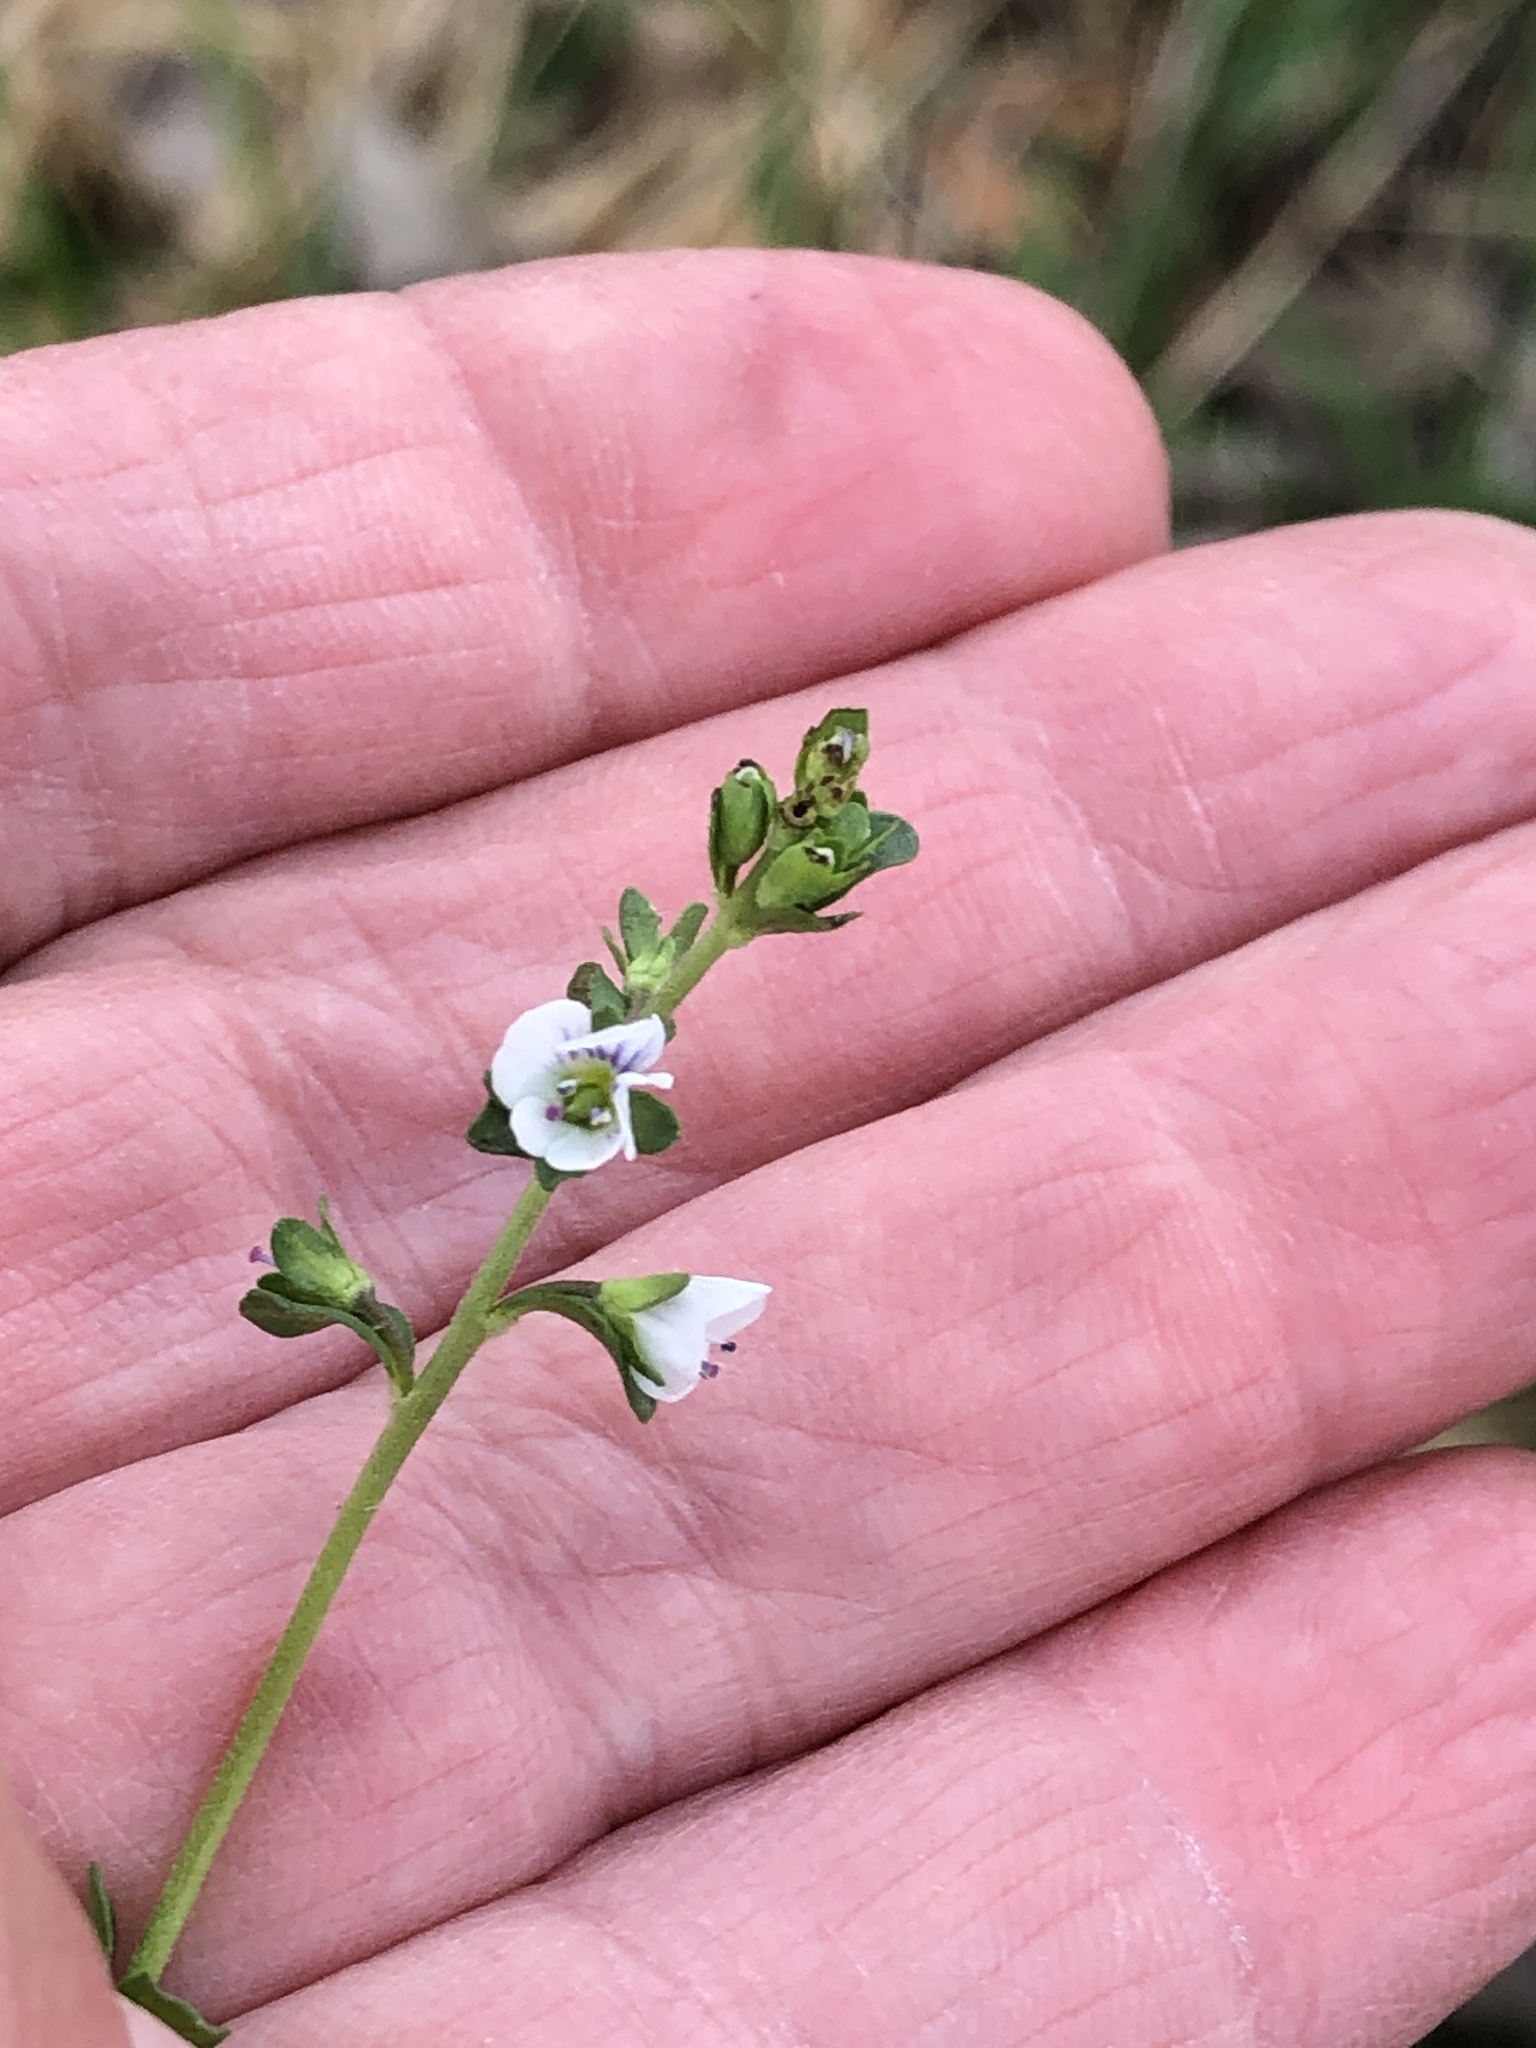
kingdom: Plantae
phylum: Tracheophyta
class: Magnoliopsida
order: Lamiales
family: Plantaginaceae
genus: Veronica
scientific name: Veronica serpyllifolia
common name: Thyme-leaved speedwell
